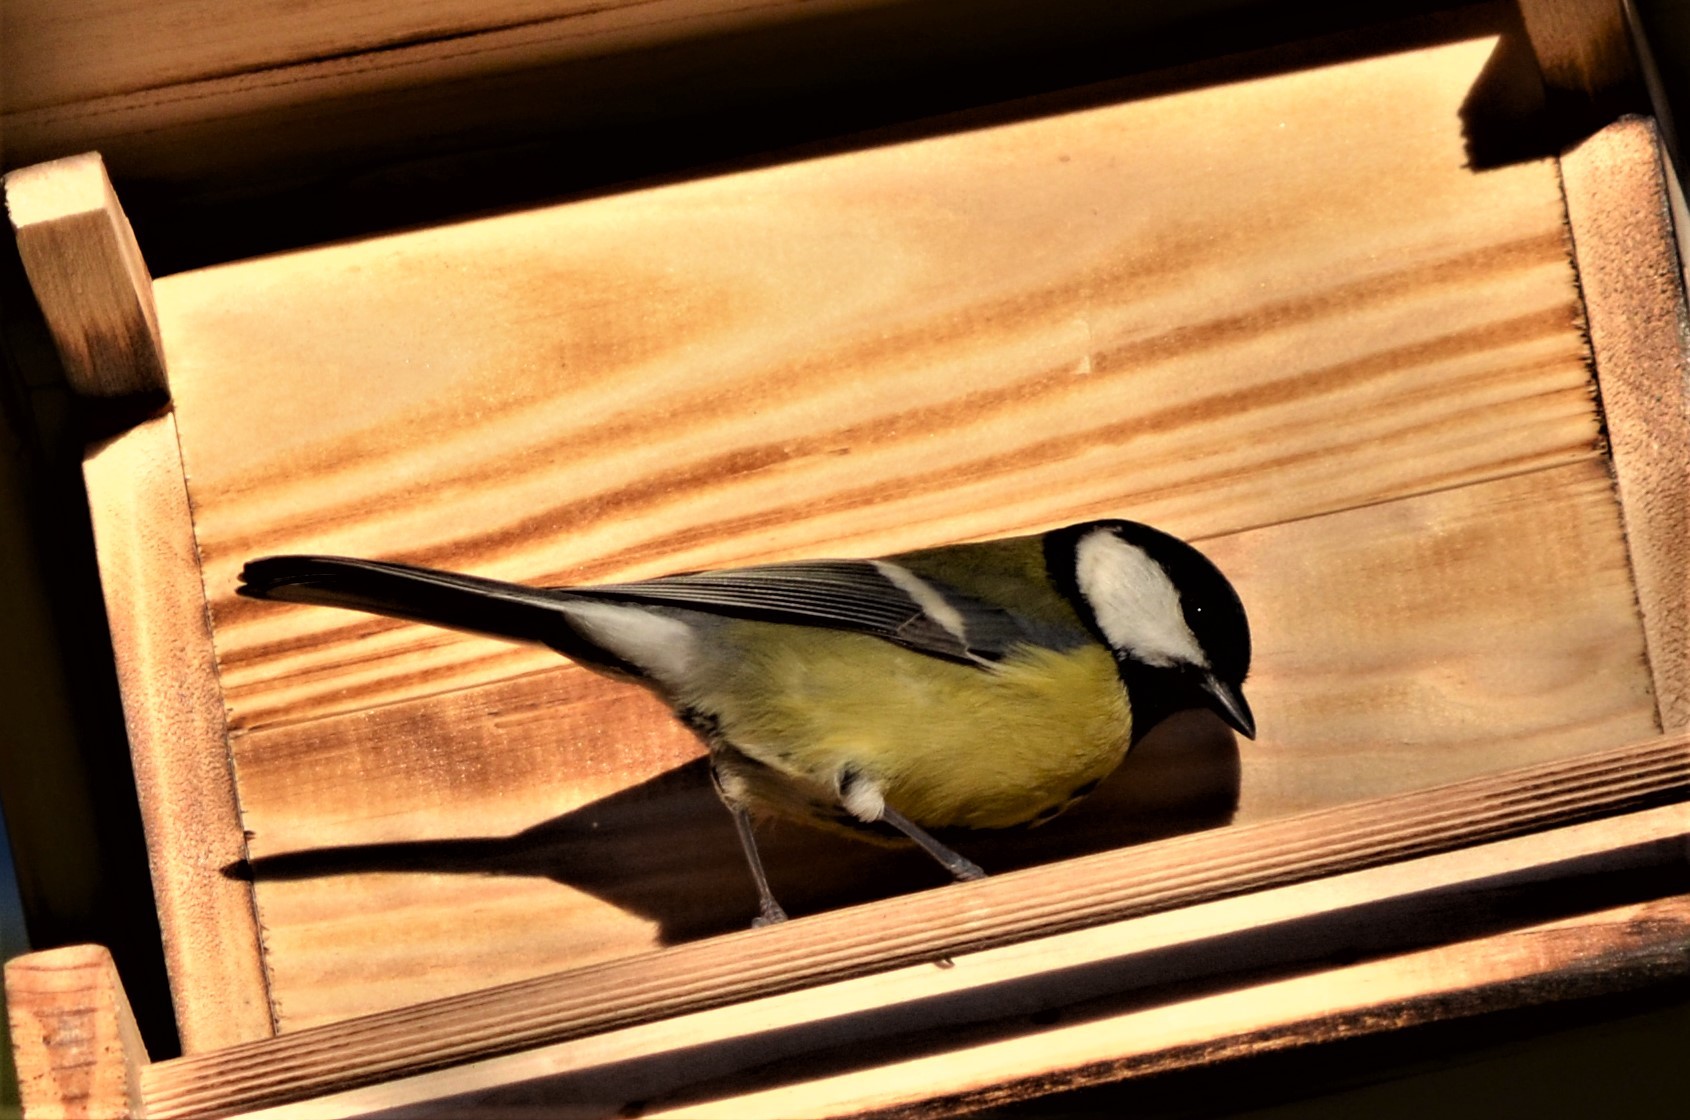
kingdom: Animalia
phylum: Chordata
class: Aves
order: Passeriformes
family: Paridae
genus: Parus
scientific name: Parus major
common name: Great tit
